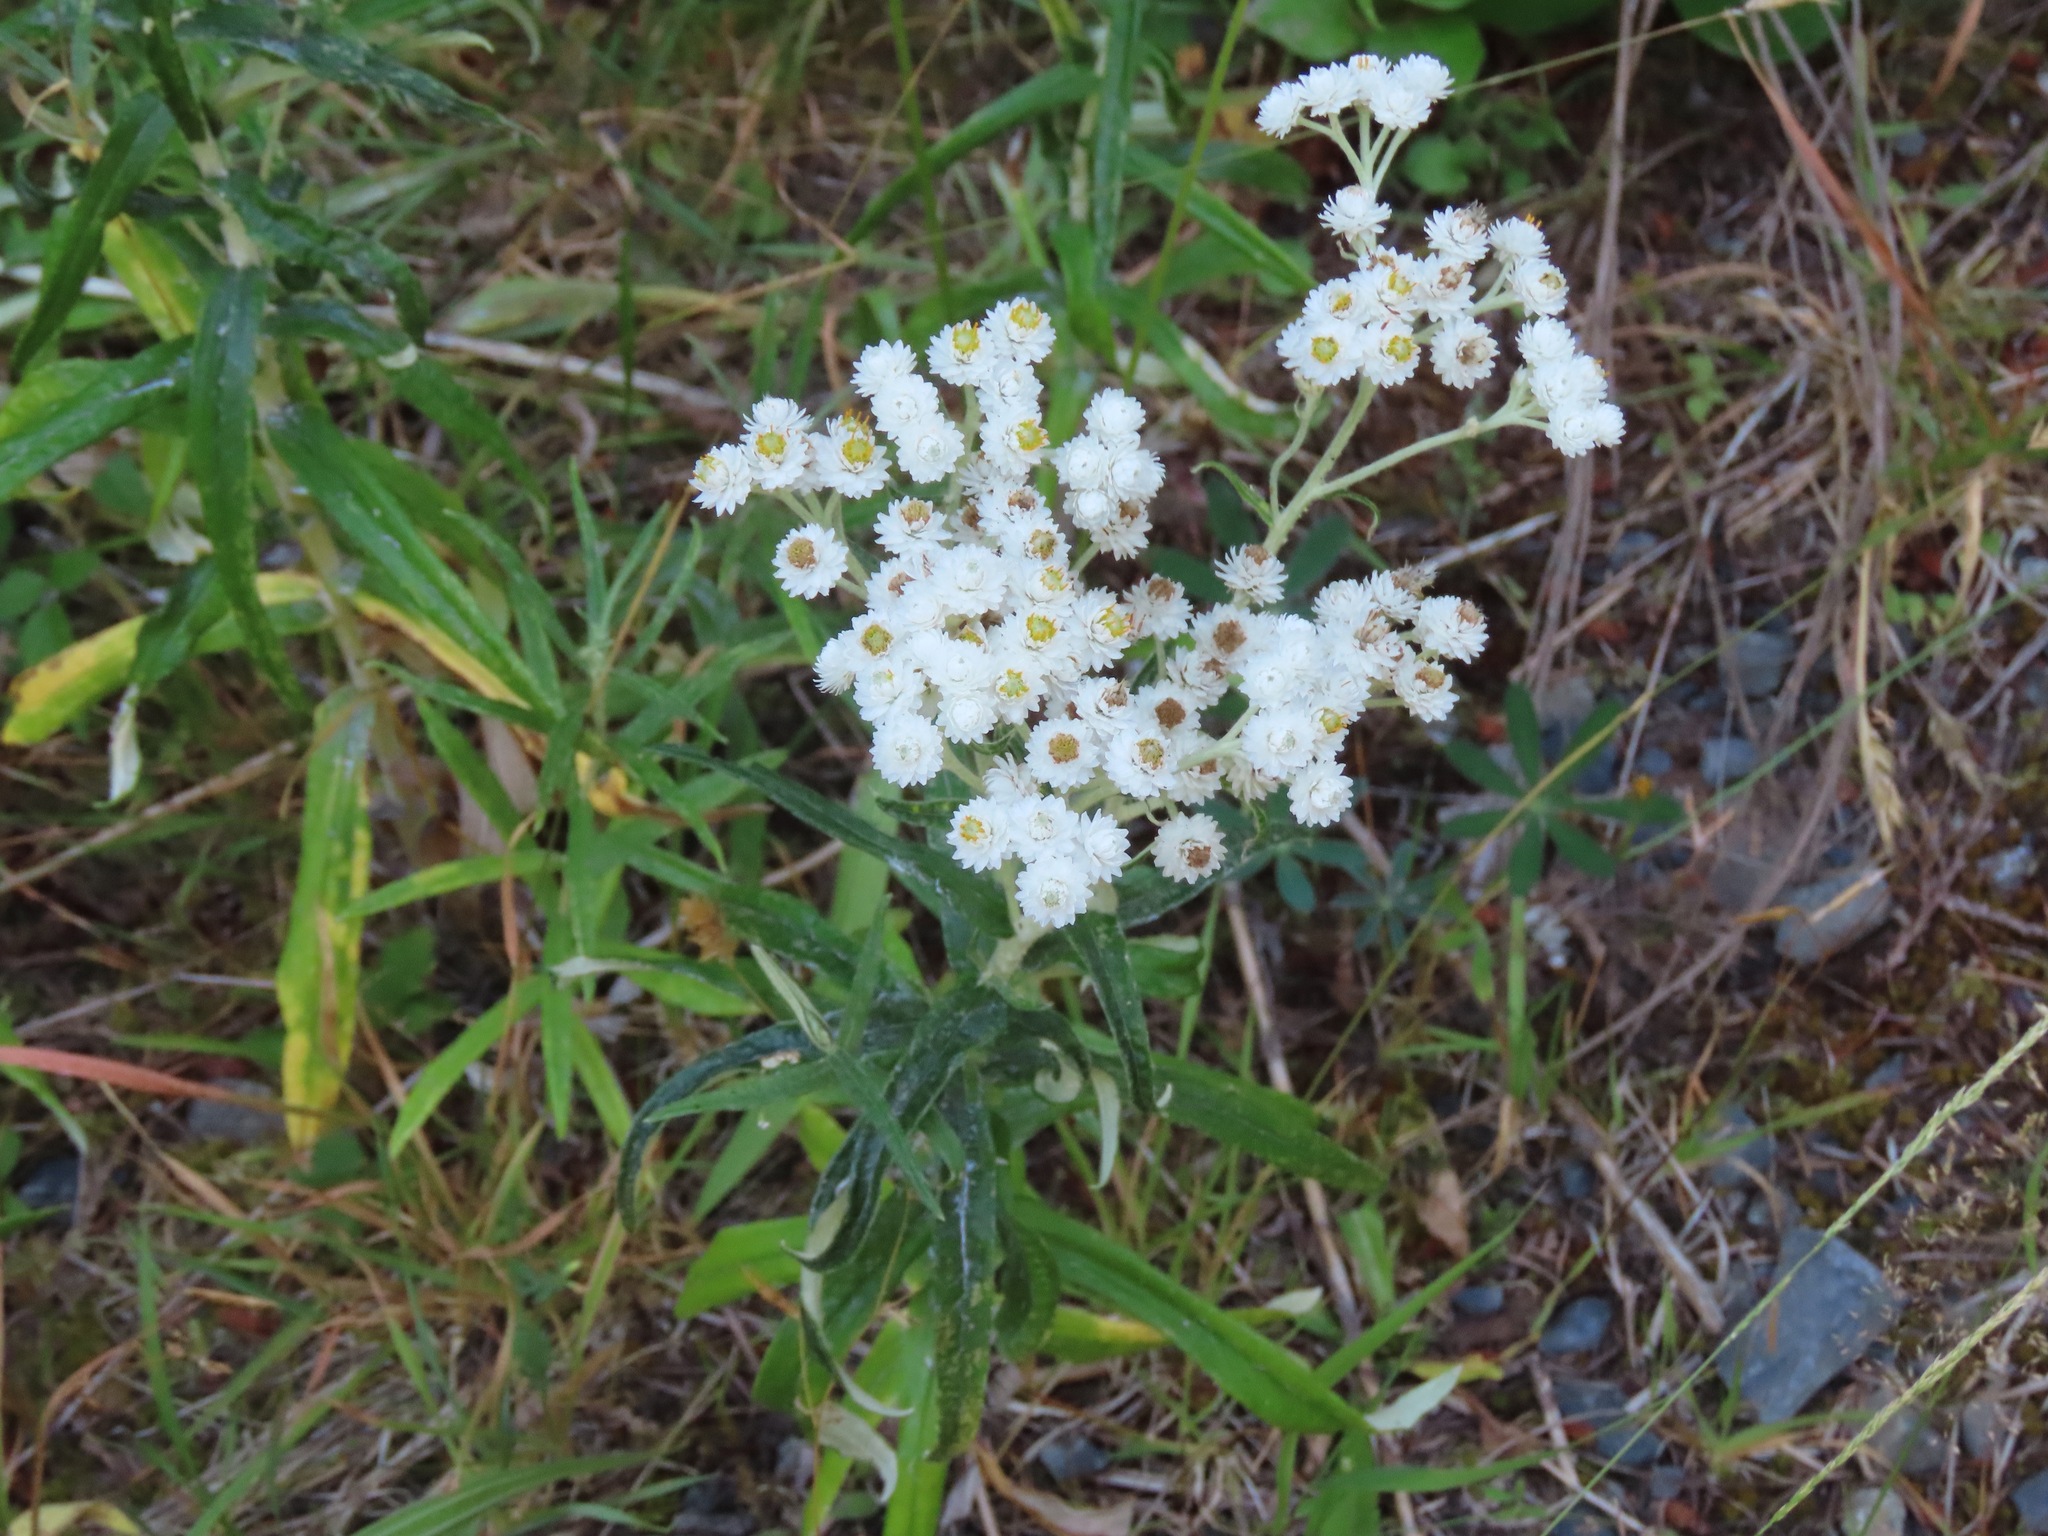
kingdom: Plantae
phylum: Tracheophyta
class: Magnoliopsida
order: Asterales
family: Asteraceae
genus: Anaphalis
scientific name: Anaphalis margaritacea
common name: Pearly everlasting
